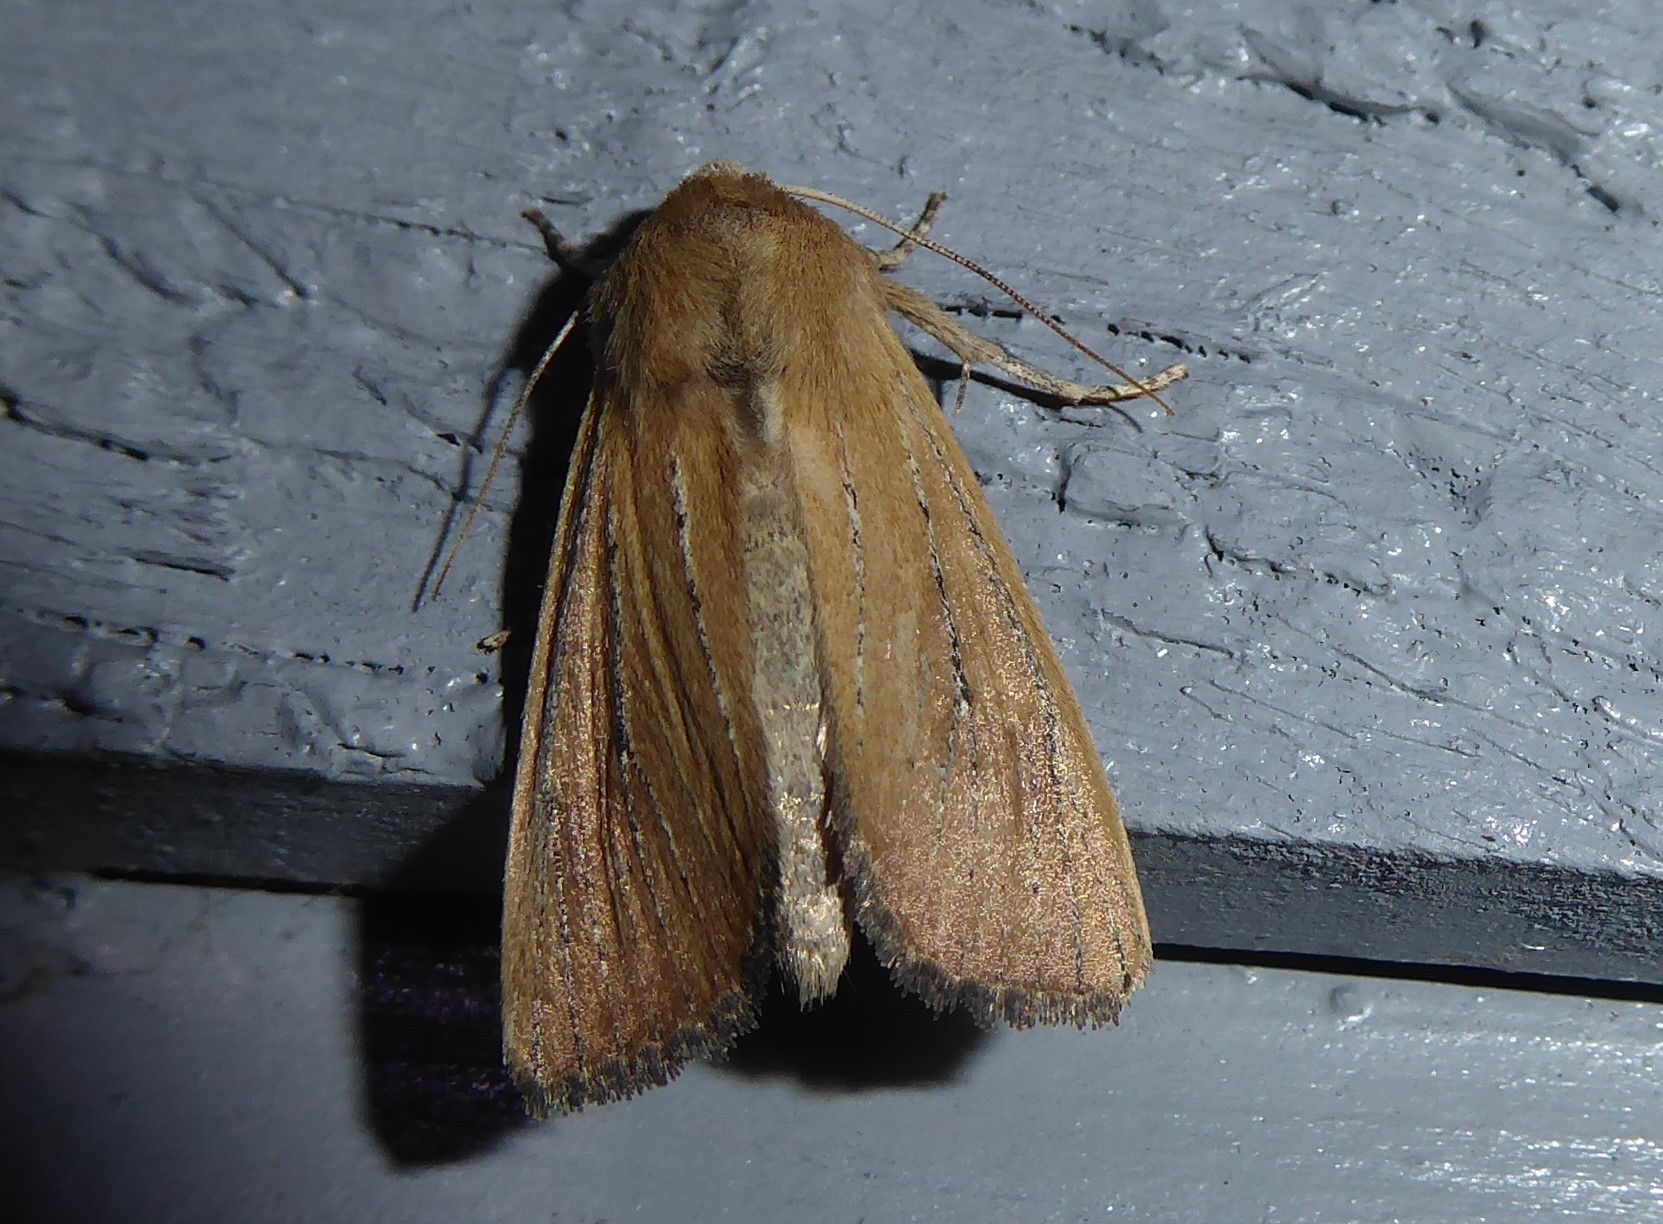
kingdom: Animalia
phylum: Arthropoda
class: Insecta
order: Lepidoptera
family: Noctuidae
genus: Ichneutica
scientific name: Ichneutica blenheimensis
